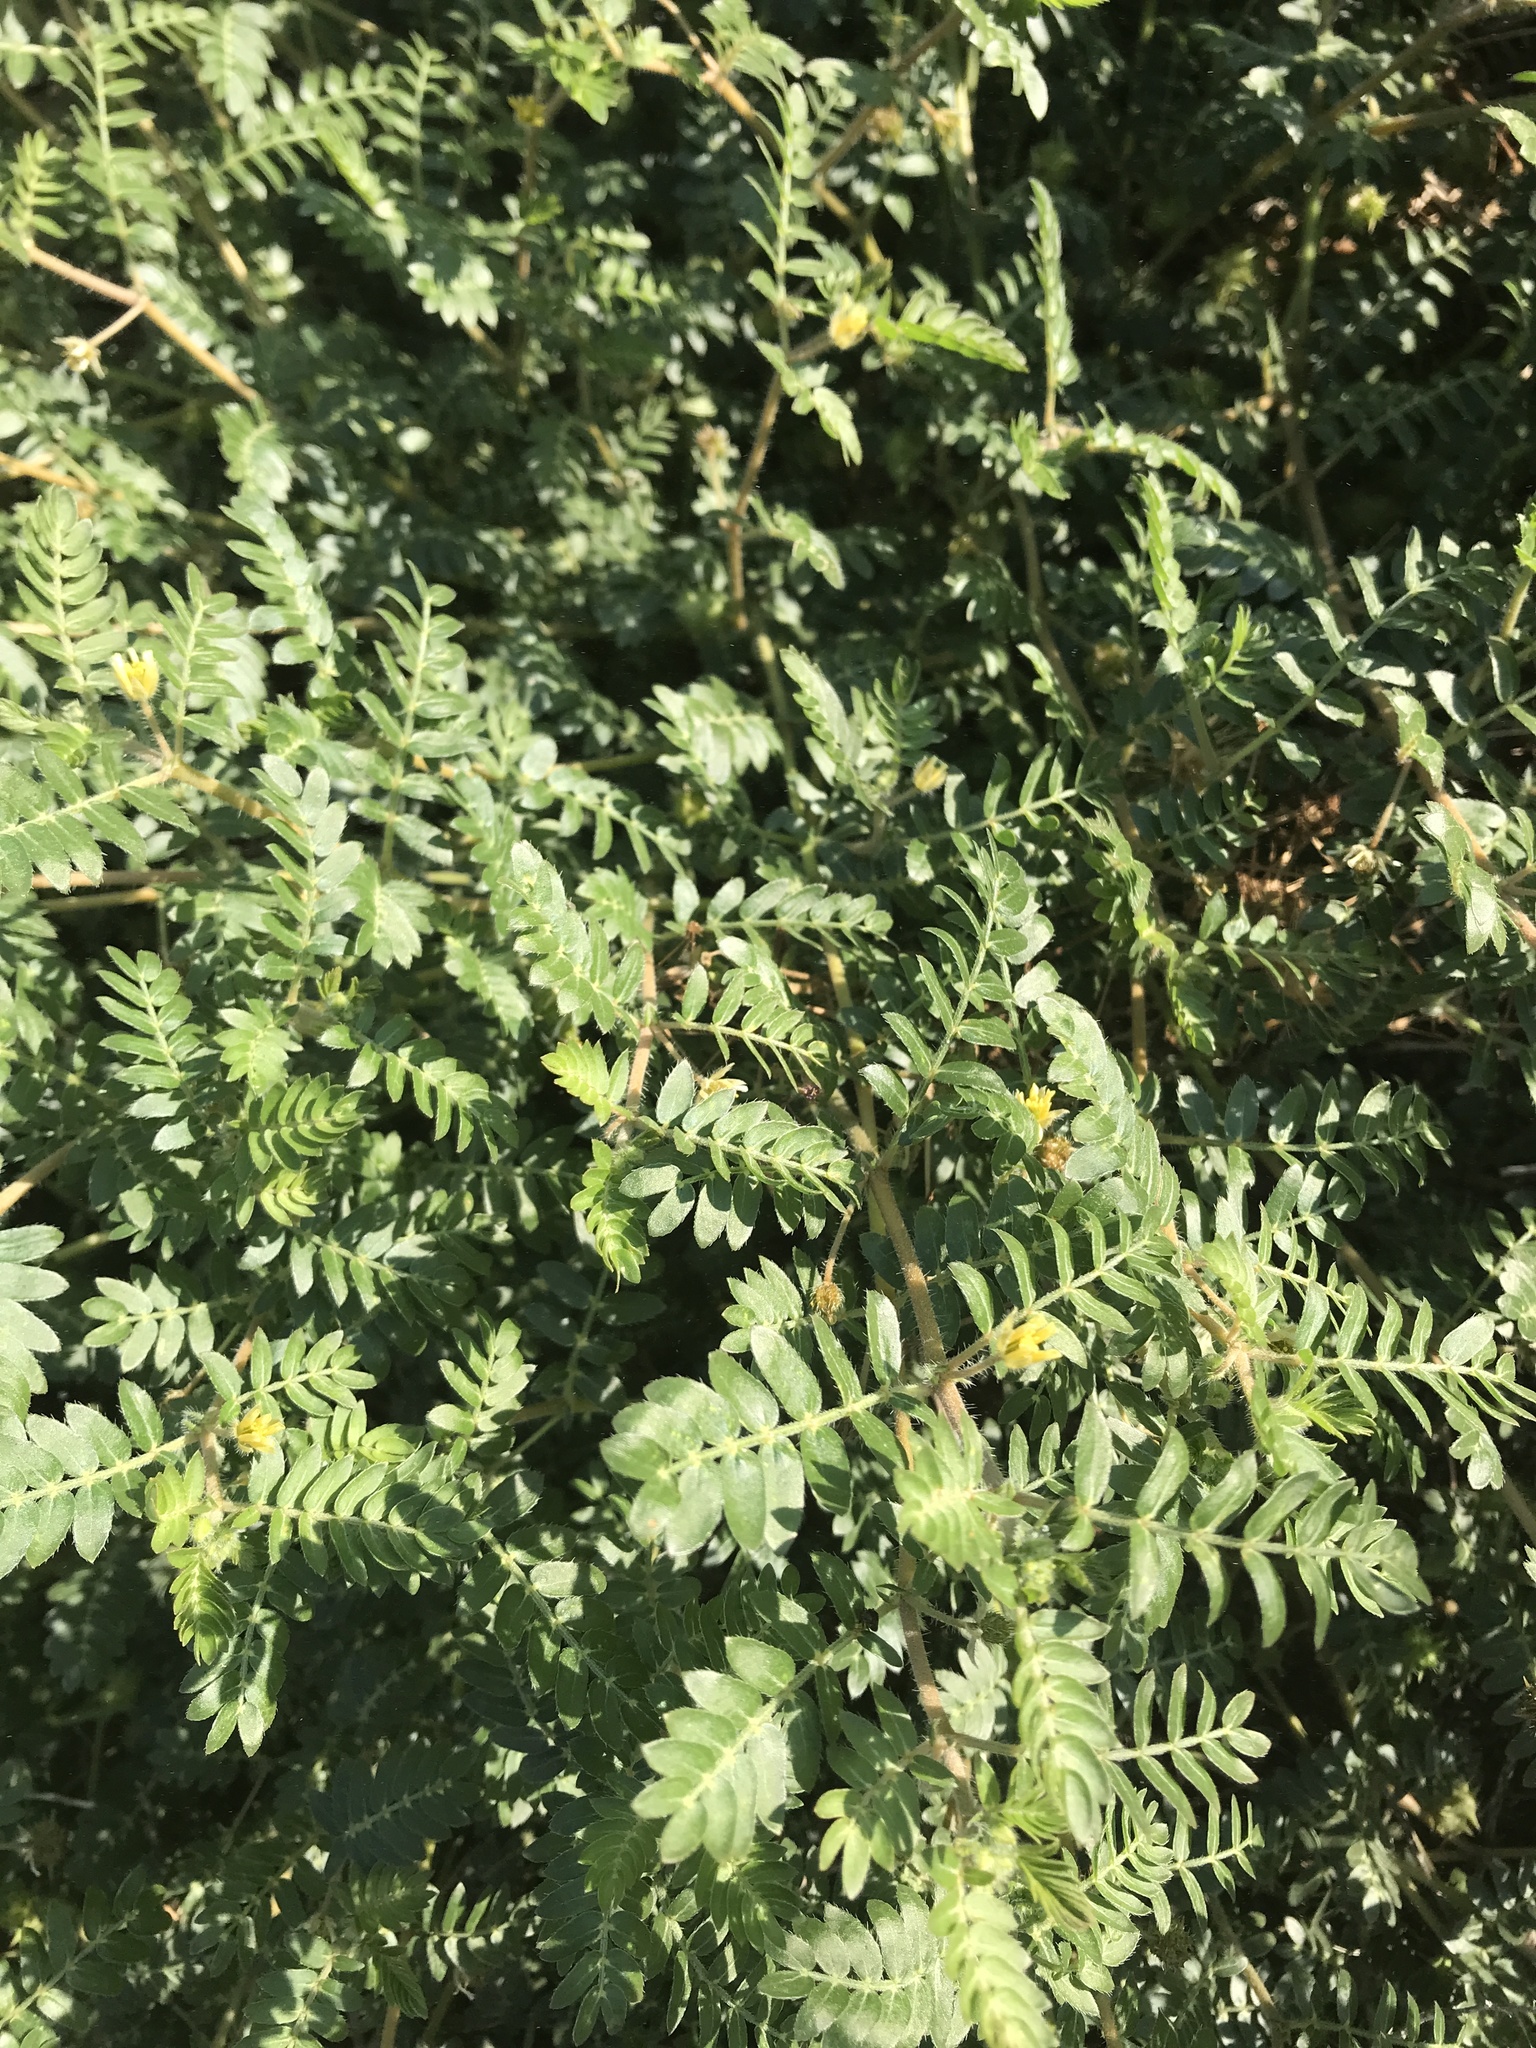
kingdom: Plantae
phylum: Tracheophyta
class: Magnoliopsida
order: Zygophyllales
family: Zygophyllaceae
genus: Tribulus
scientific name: Tribulus terrestris
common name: Puncturevine
